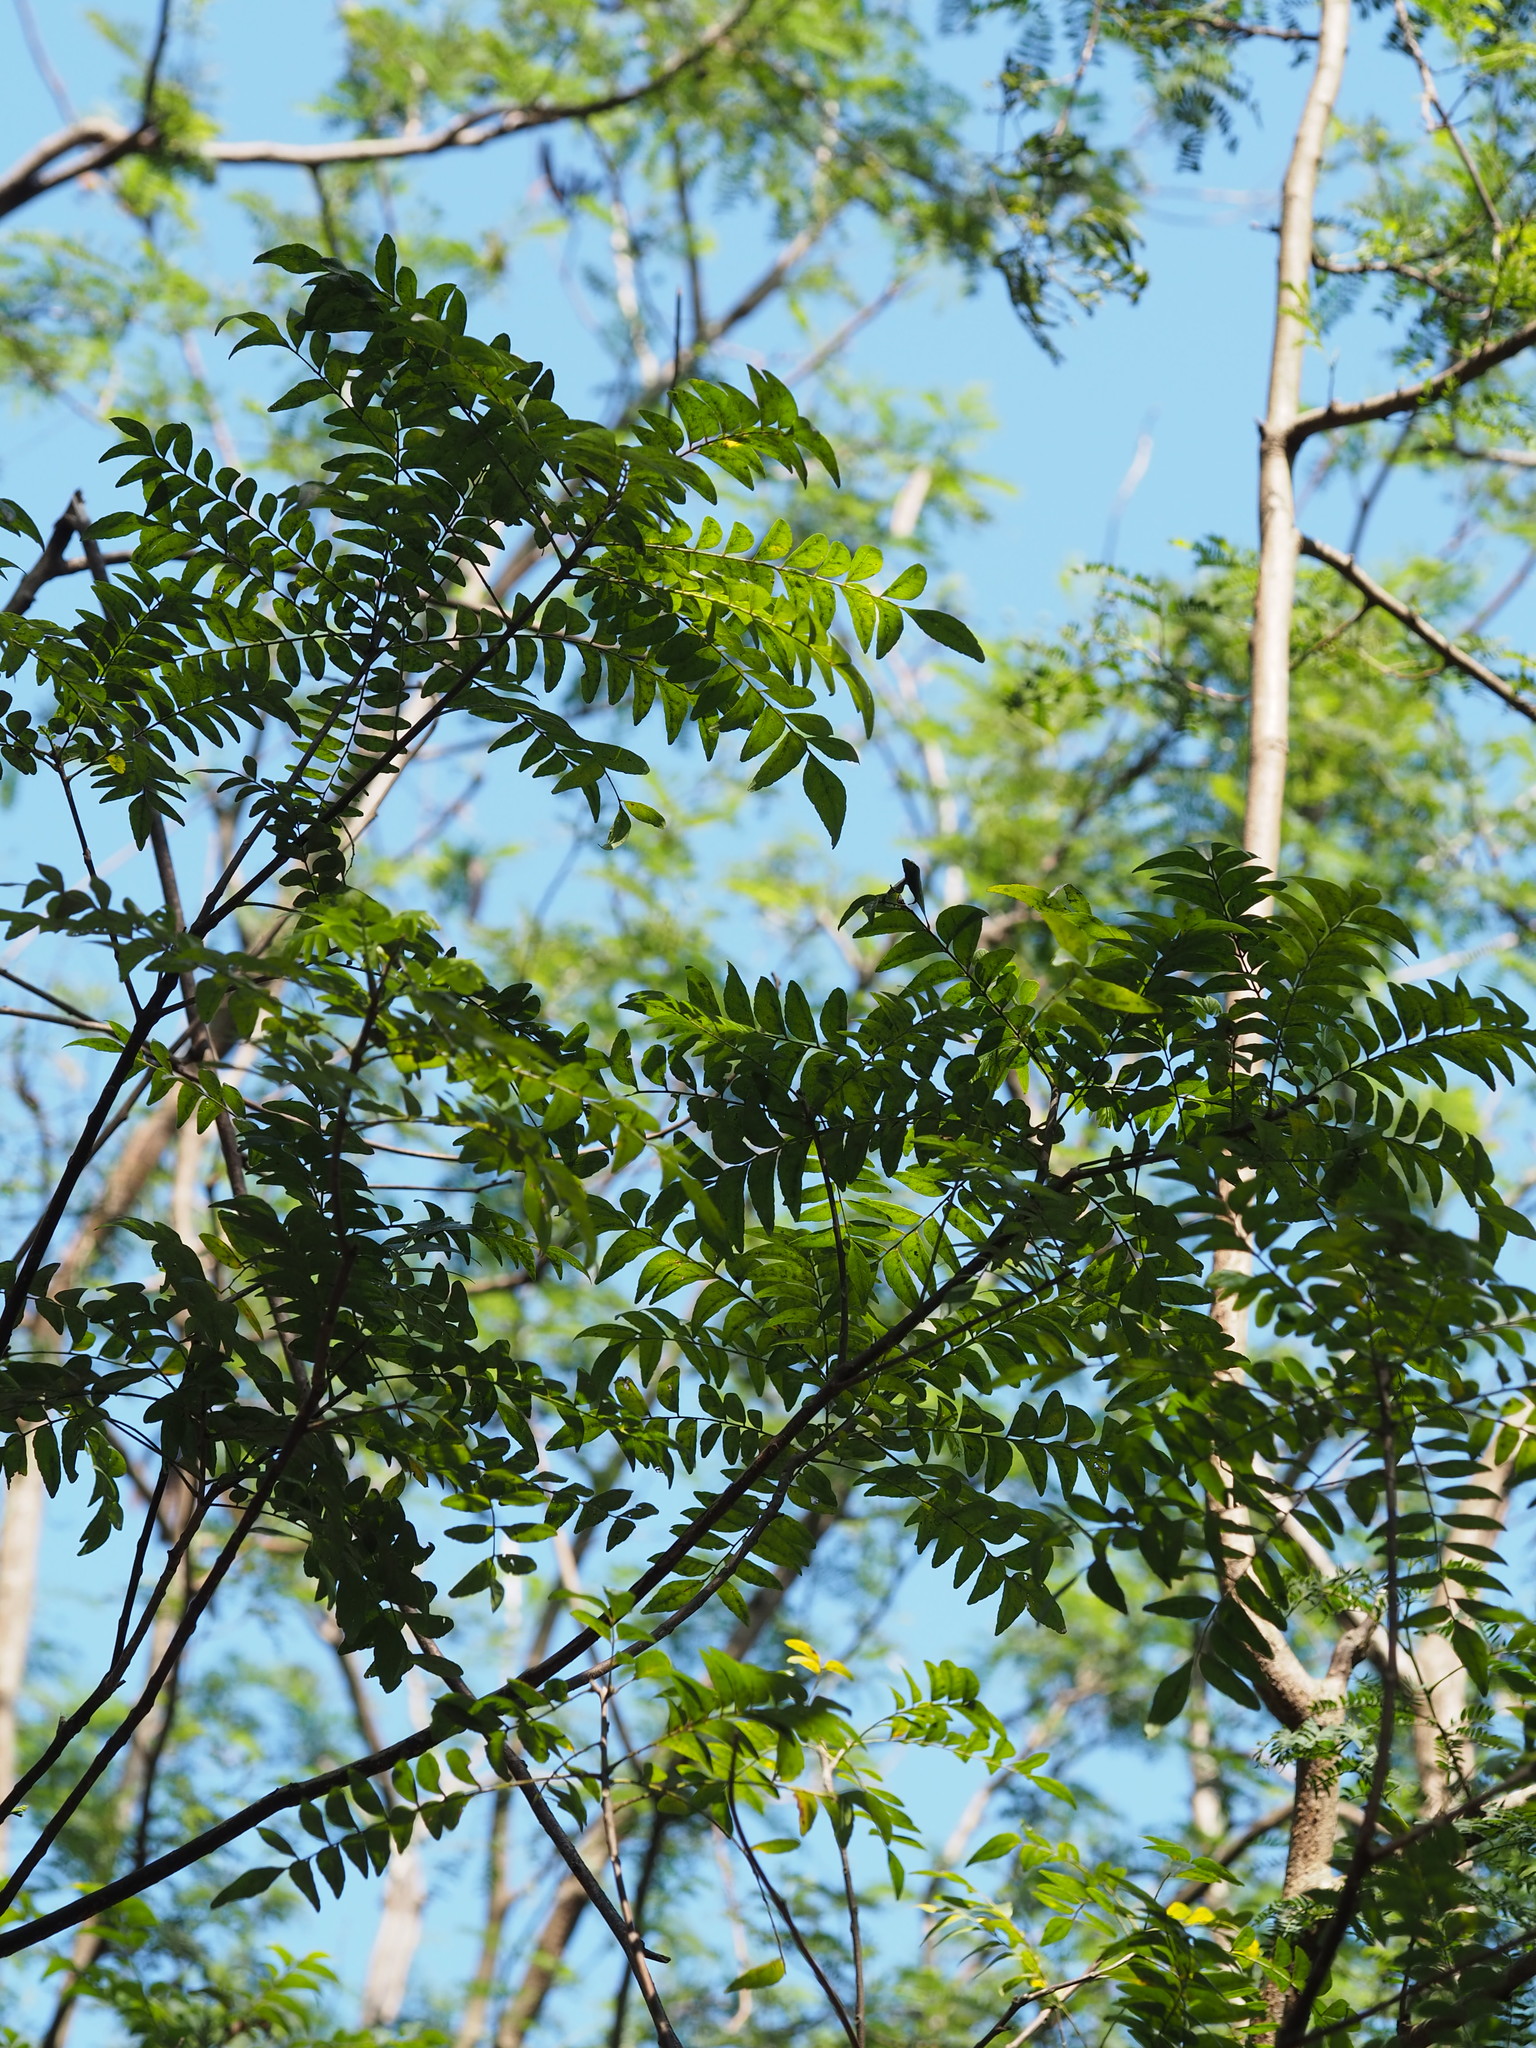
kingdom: Plantae
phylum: Tracheophyta
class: Magnoliopsida
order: Sapindales
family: Rutaceae
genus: Clausena
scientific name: Clausena excavata
